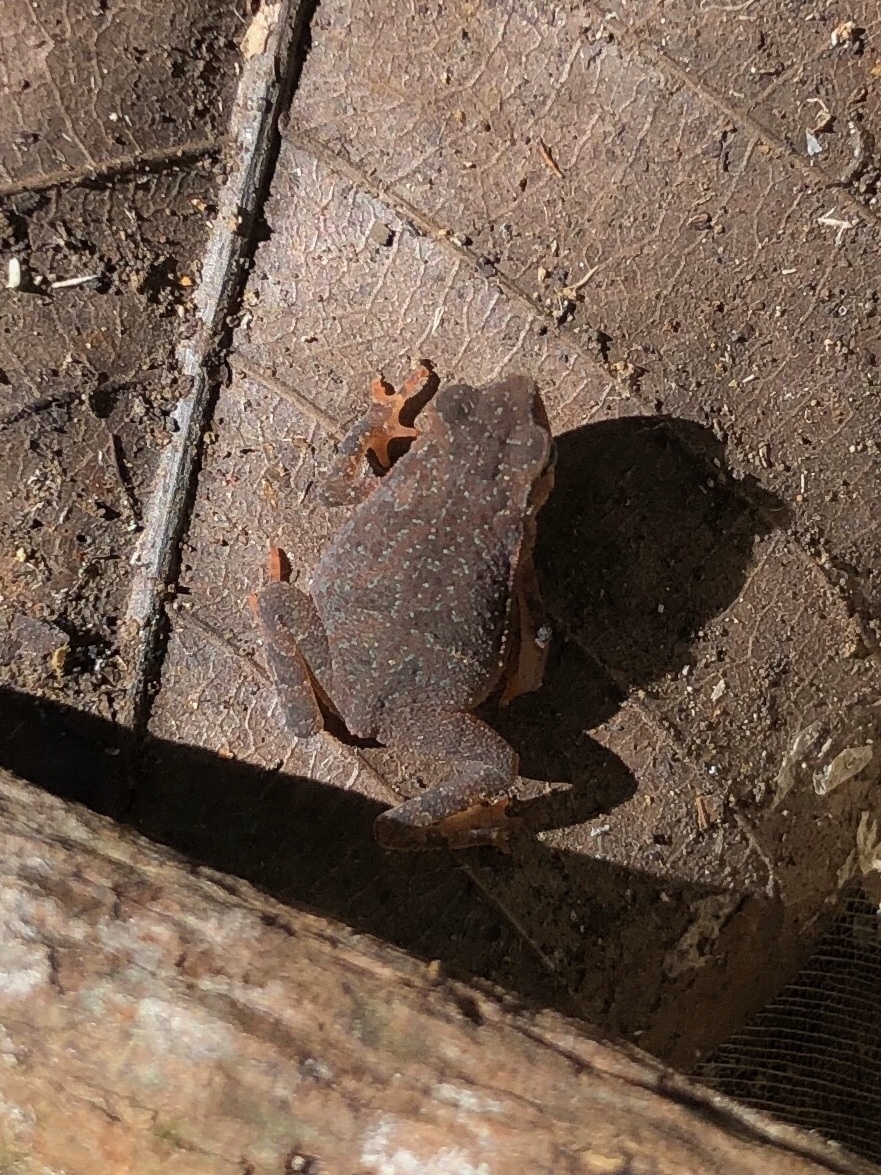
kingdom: Animalia
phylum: Chordata
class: Amphibia
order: Anura
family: Bufonidae
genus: Rhinella
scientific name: Rhinella alata
